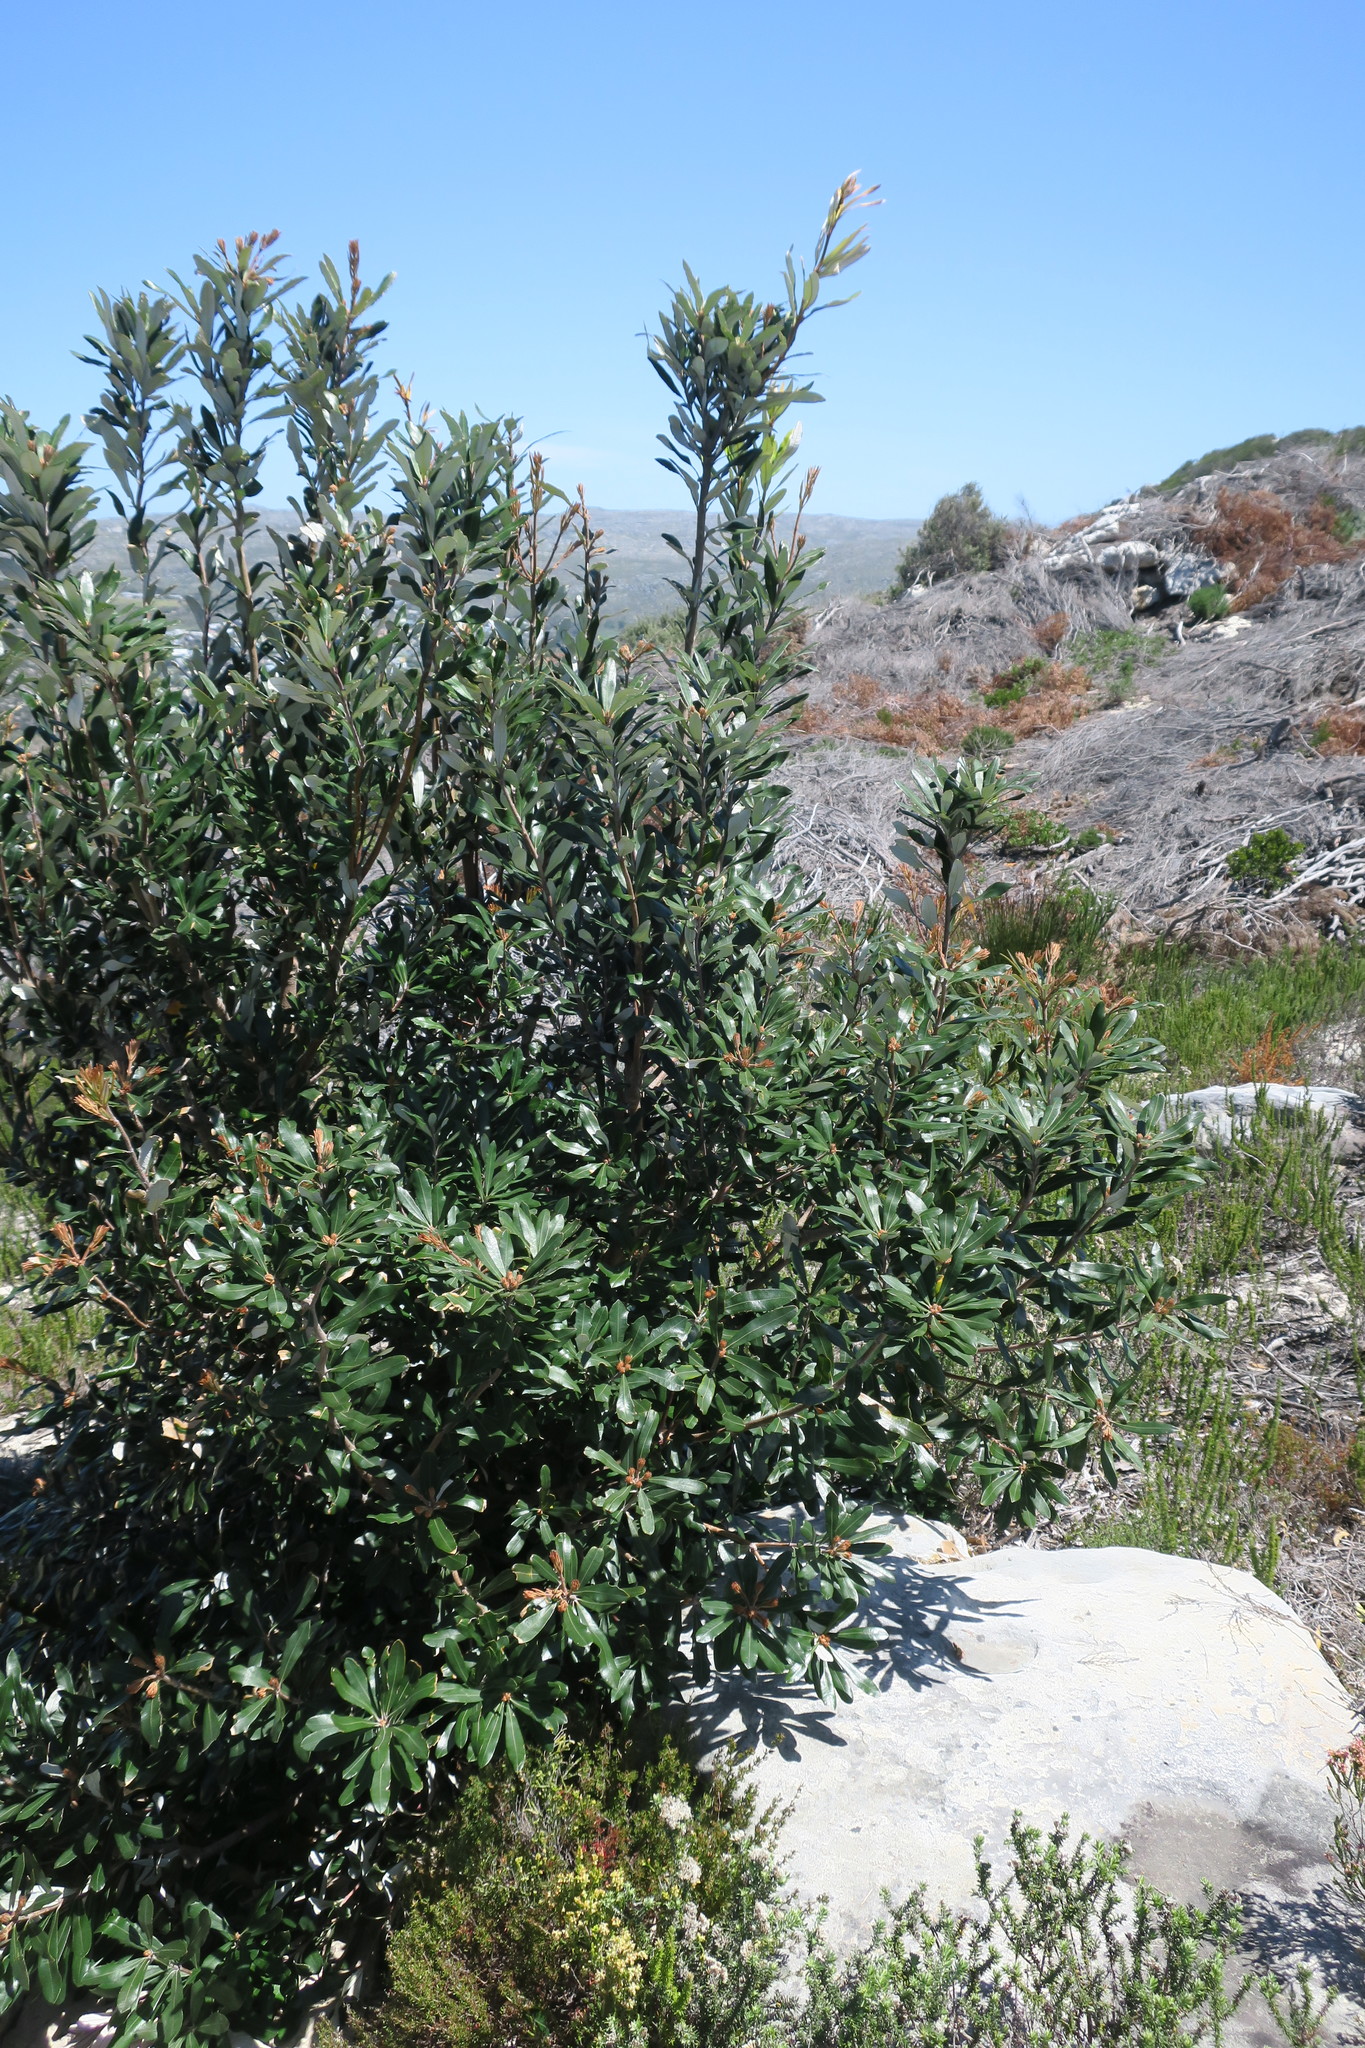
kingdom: Plantae
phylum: Tracheophyta
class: Magnoliopsida
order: Proteales
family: Proteaceae
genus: Banksia
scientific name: Banksia integrifolia
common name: White-honeysuckle
